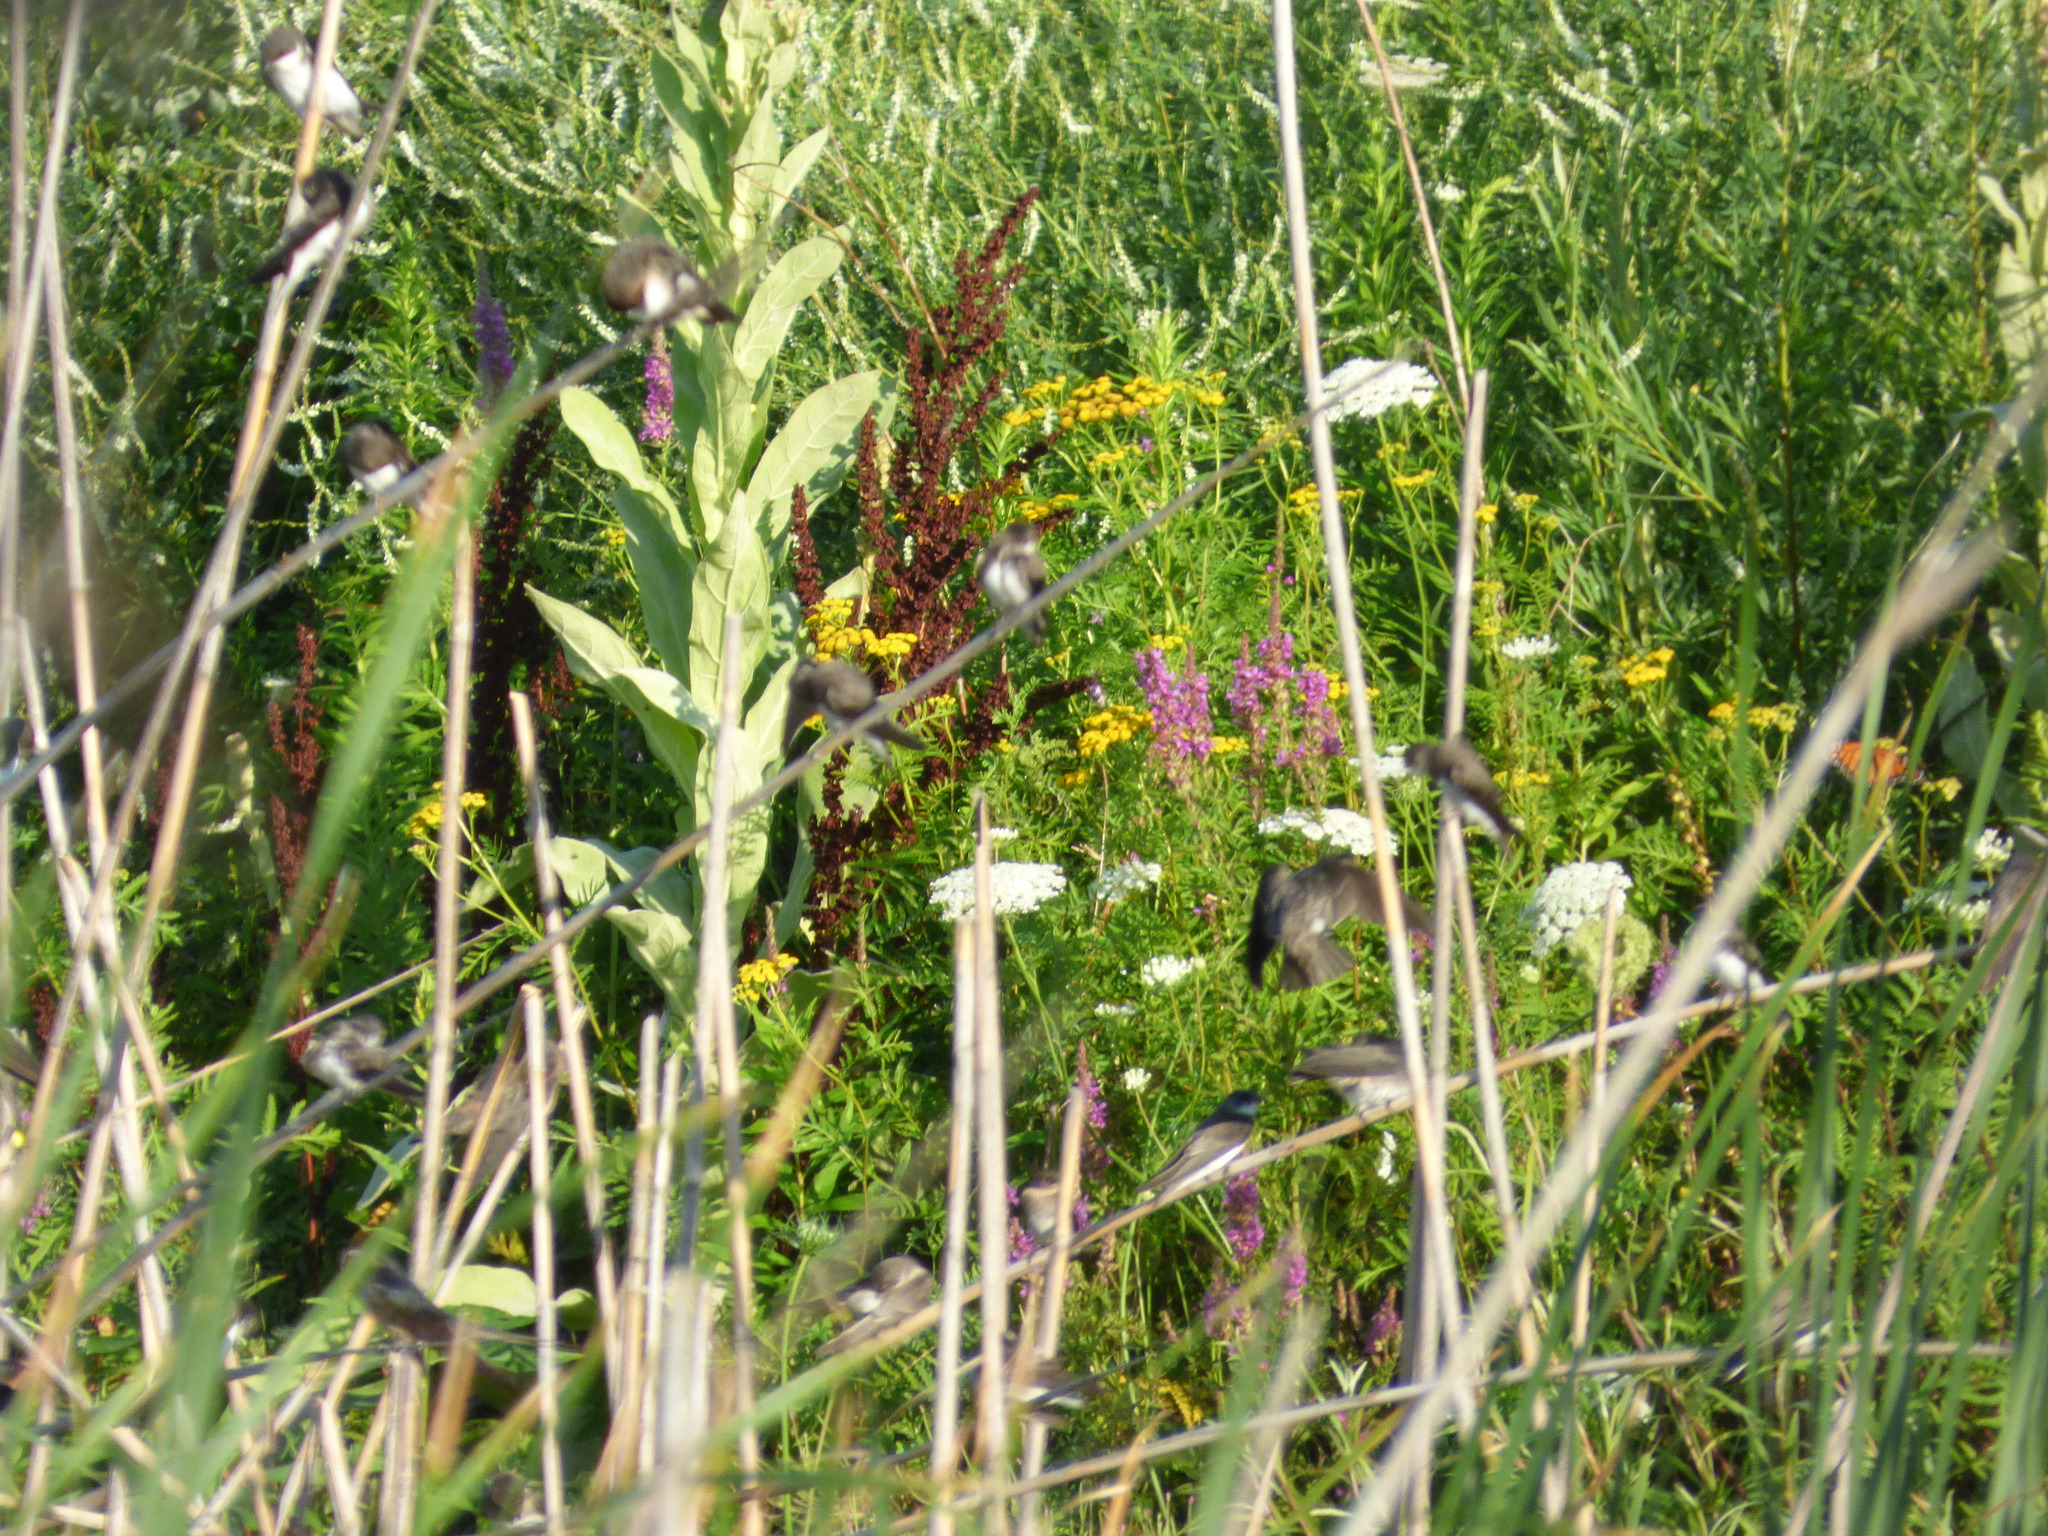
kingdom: Animalia
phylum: Chordata
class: Aves
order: Passeriformes
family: Hirundinidae
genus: Tachycineta
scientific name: Tachycineta bicolor
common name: Tree swallow
